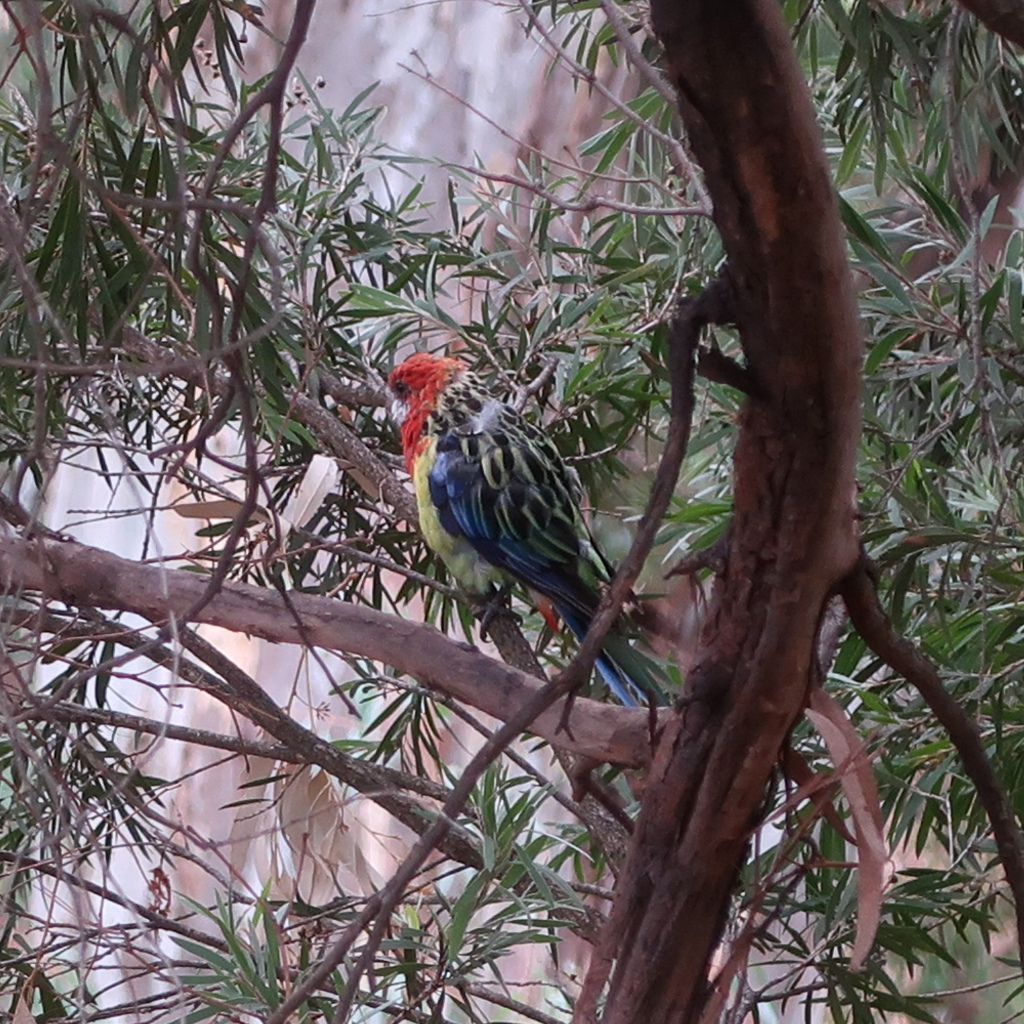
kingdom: Animalia
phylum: Chordata
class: Aves
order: Psittaciformes
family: Psittacidae
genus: Platycercus
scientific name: Platycercus eximius
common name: Eastern rosella
